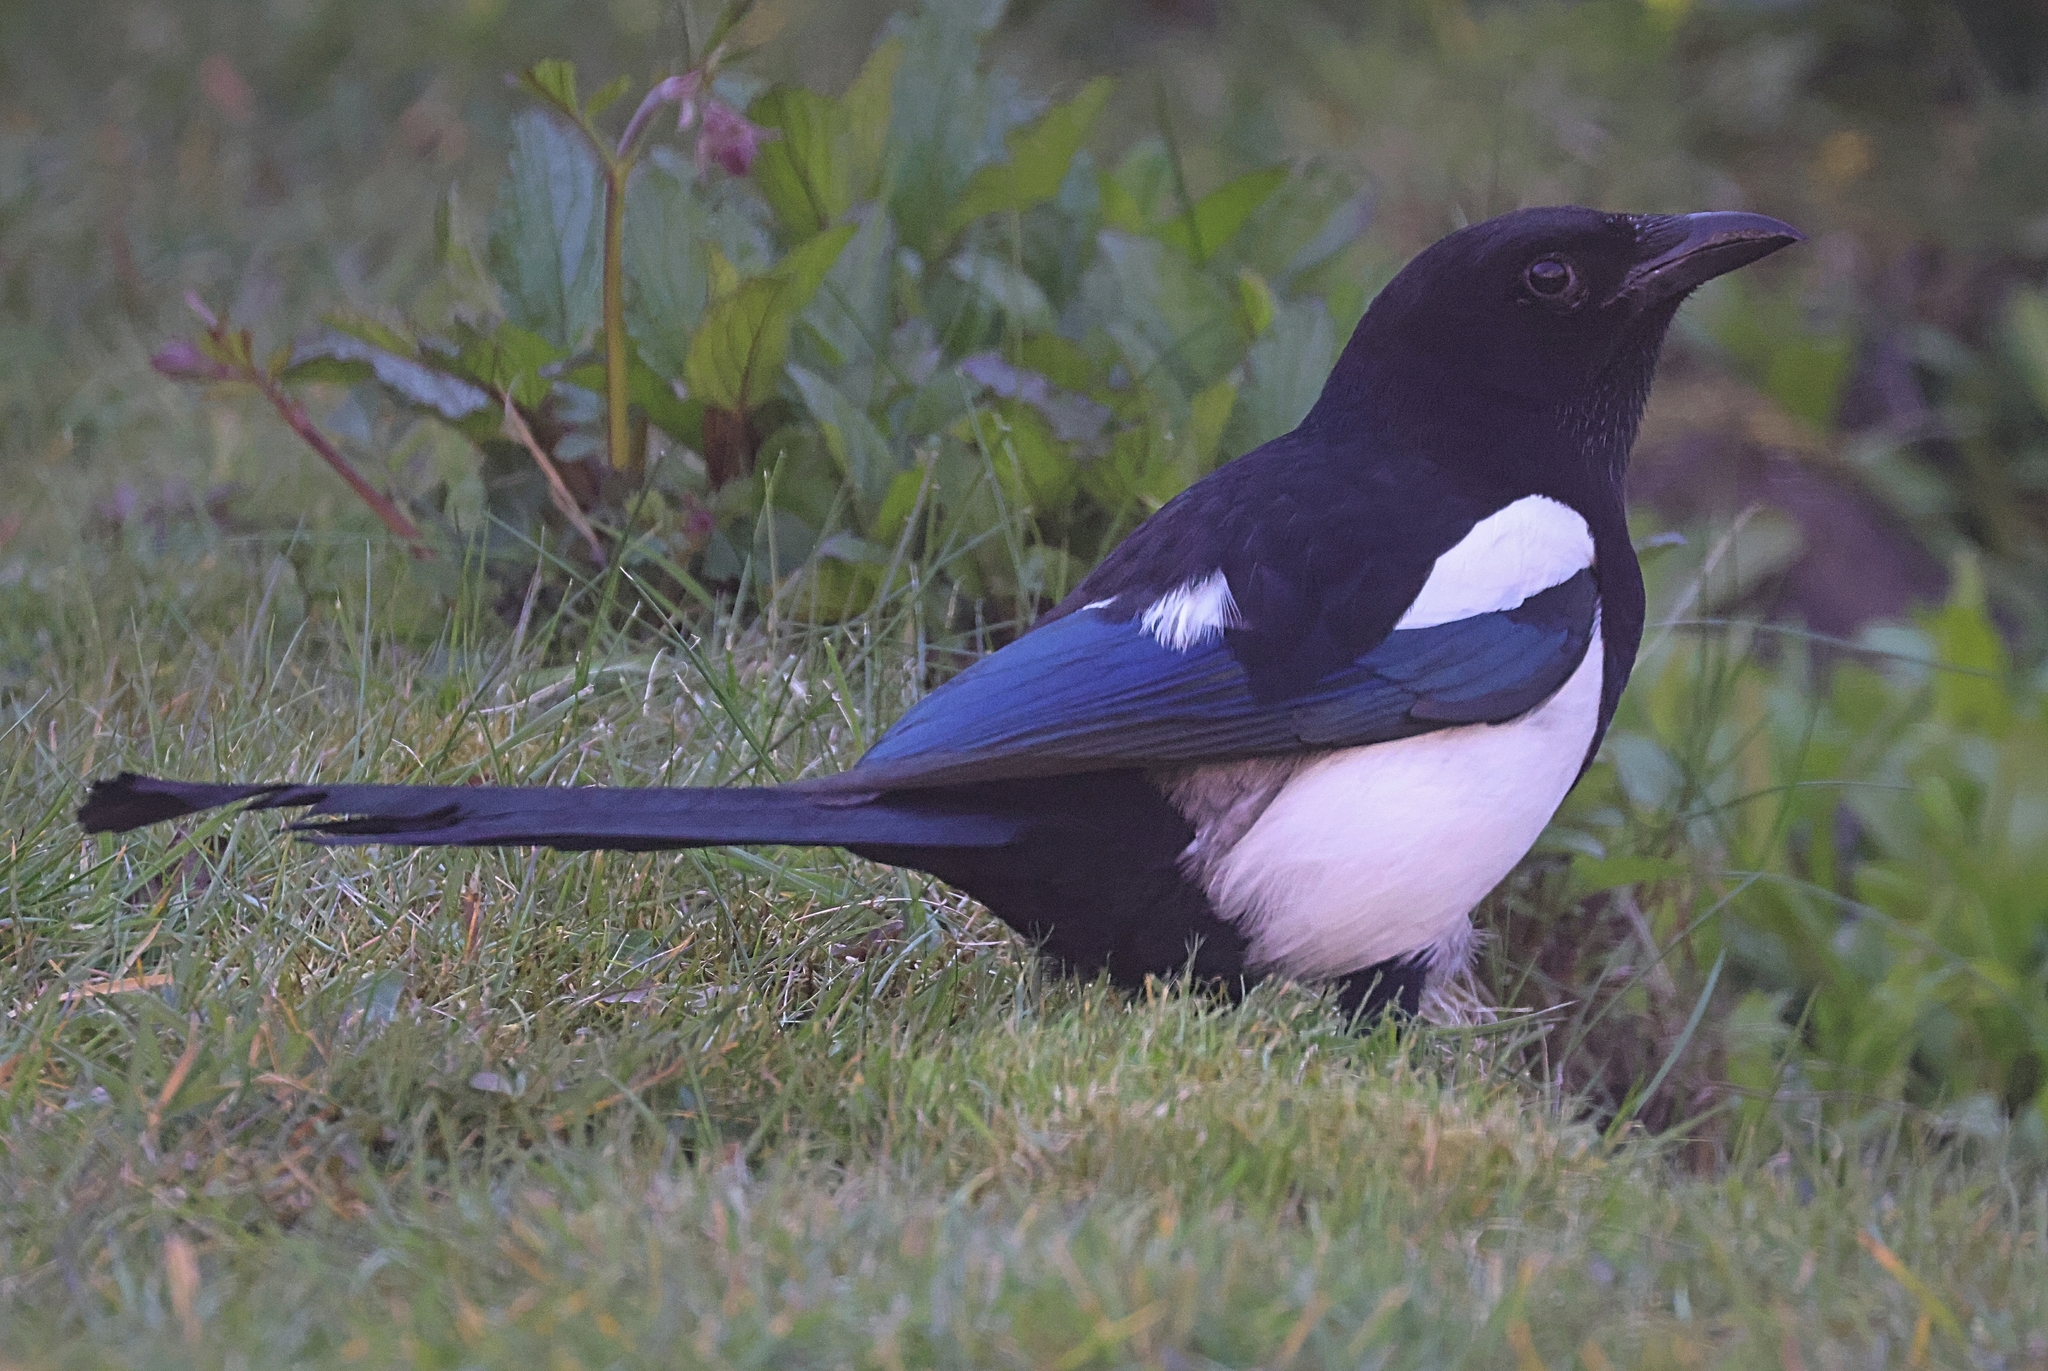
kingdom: Animalia
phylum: Chordata
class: Aves
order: Passeriformes
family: Corvidae
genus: Pica
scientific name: Pica pica
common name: Eurasian magpie
